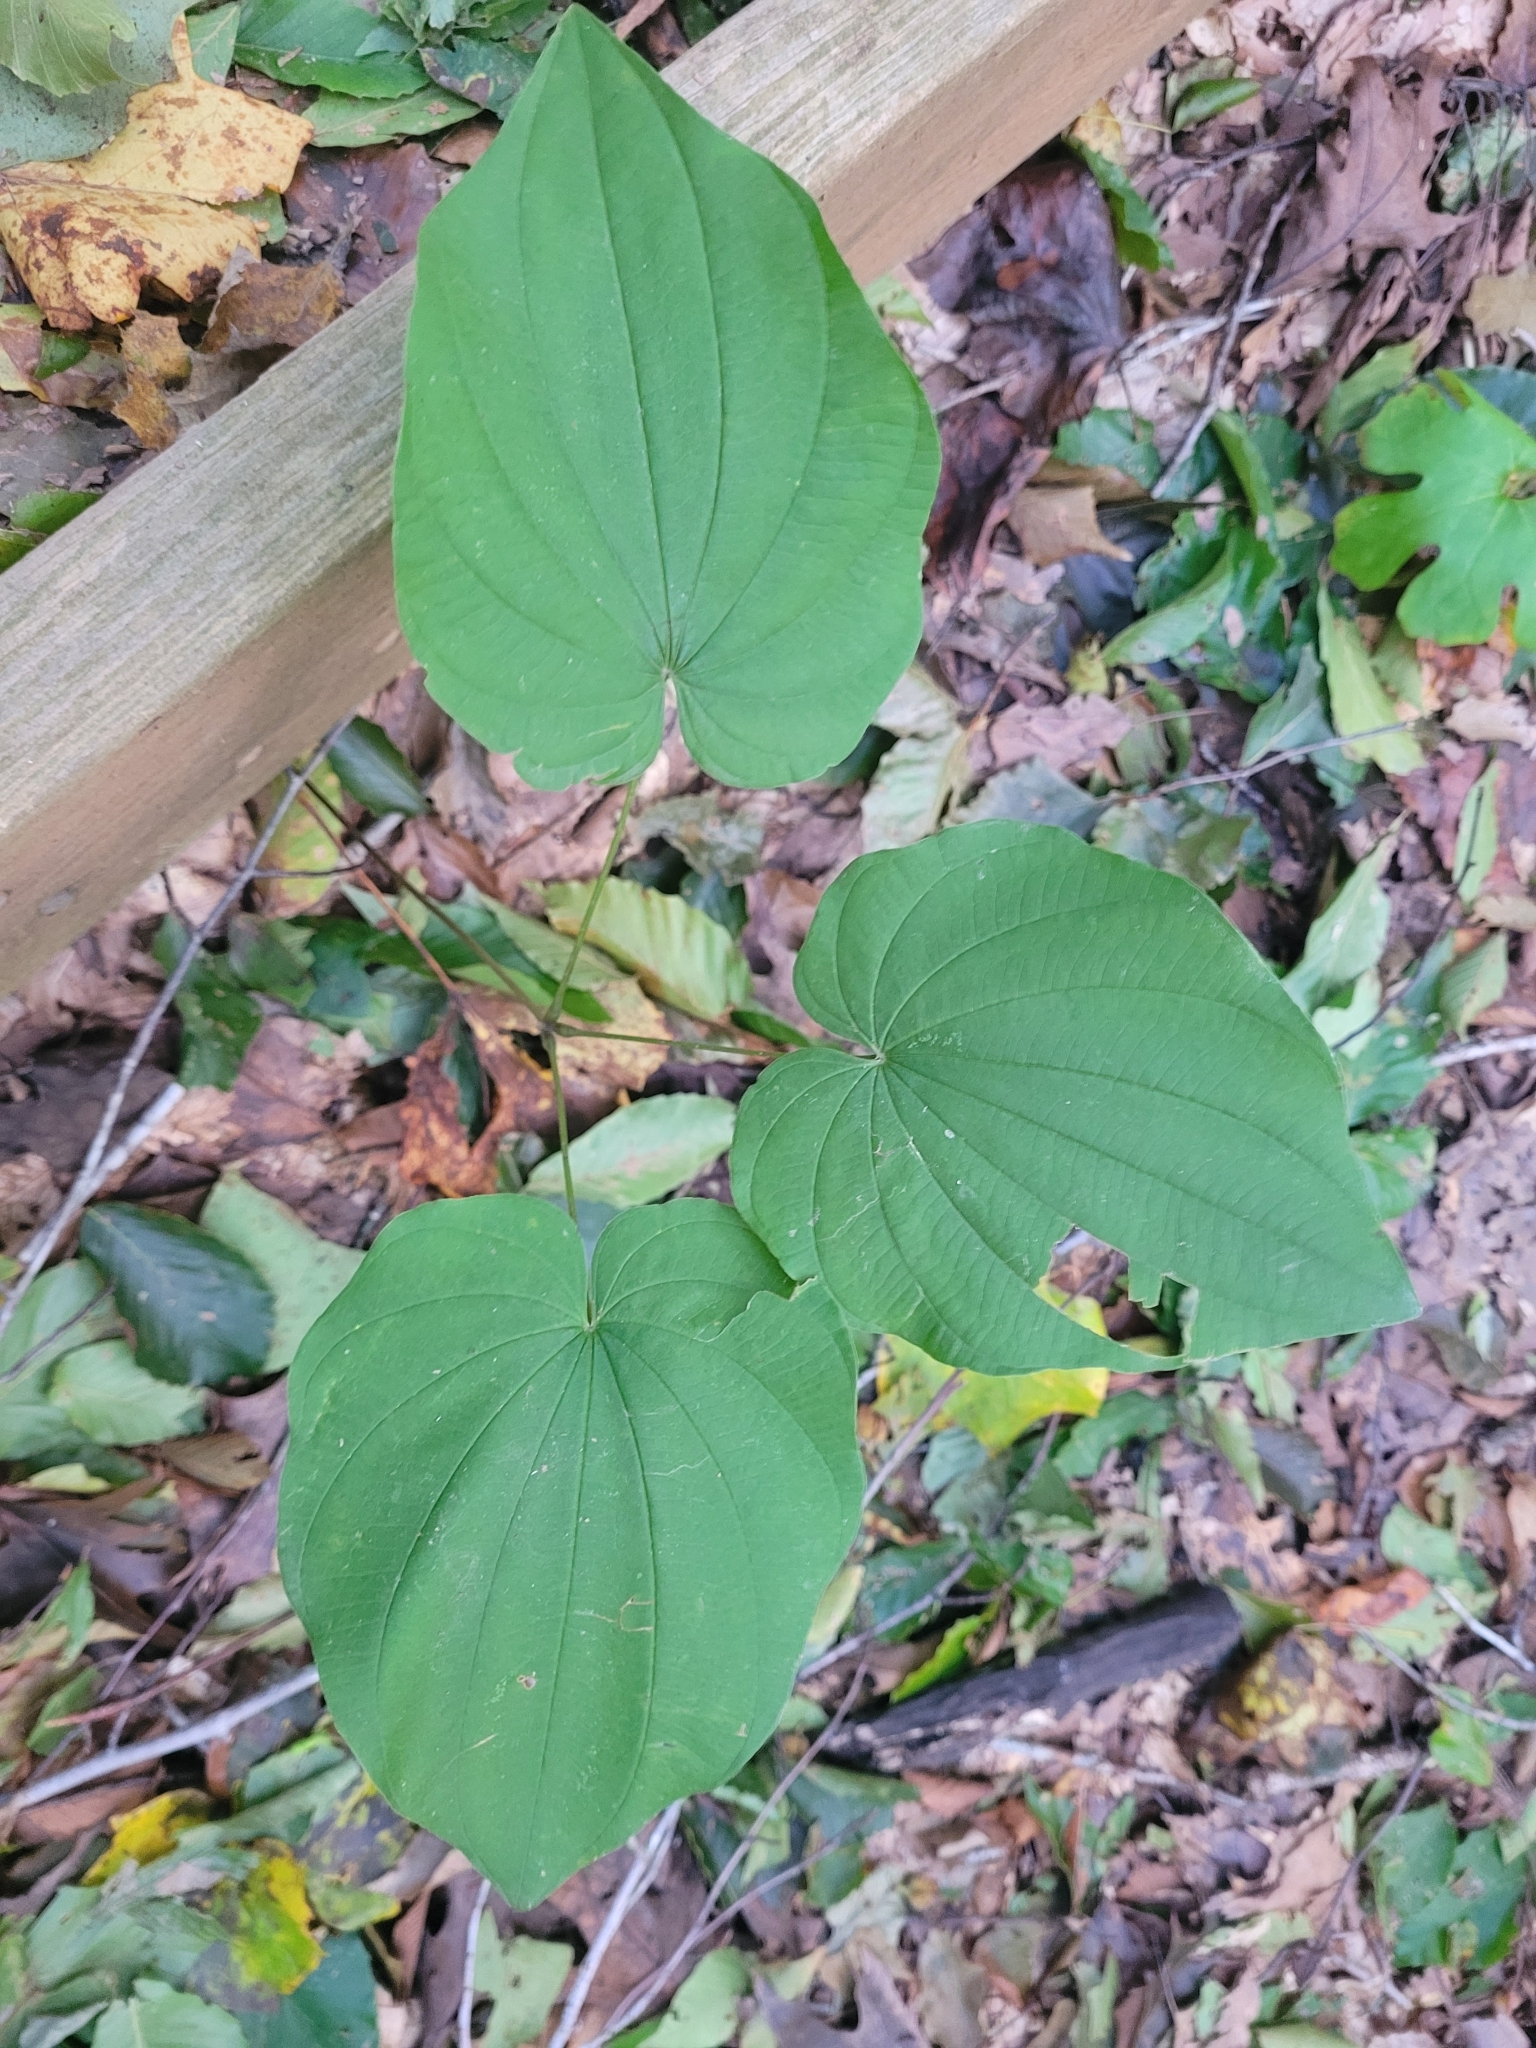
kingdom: Plantae
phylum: Tracheophyta
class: Liliopsida
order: Dioscoreales
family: Dioscoreaceae
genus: Dioscorea
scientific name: Dioscorea villosa
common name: Wild yam
